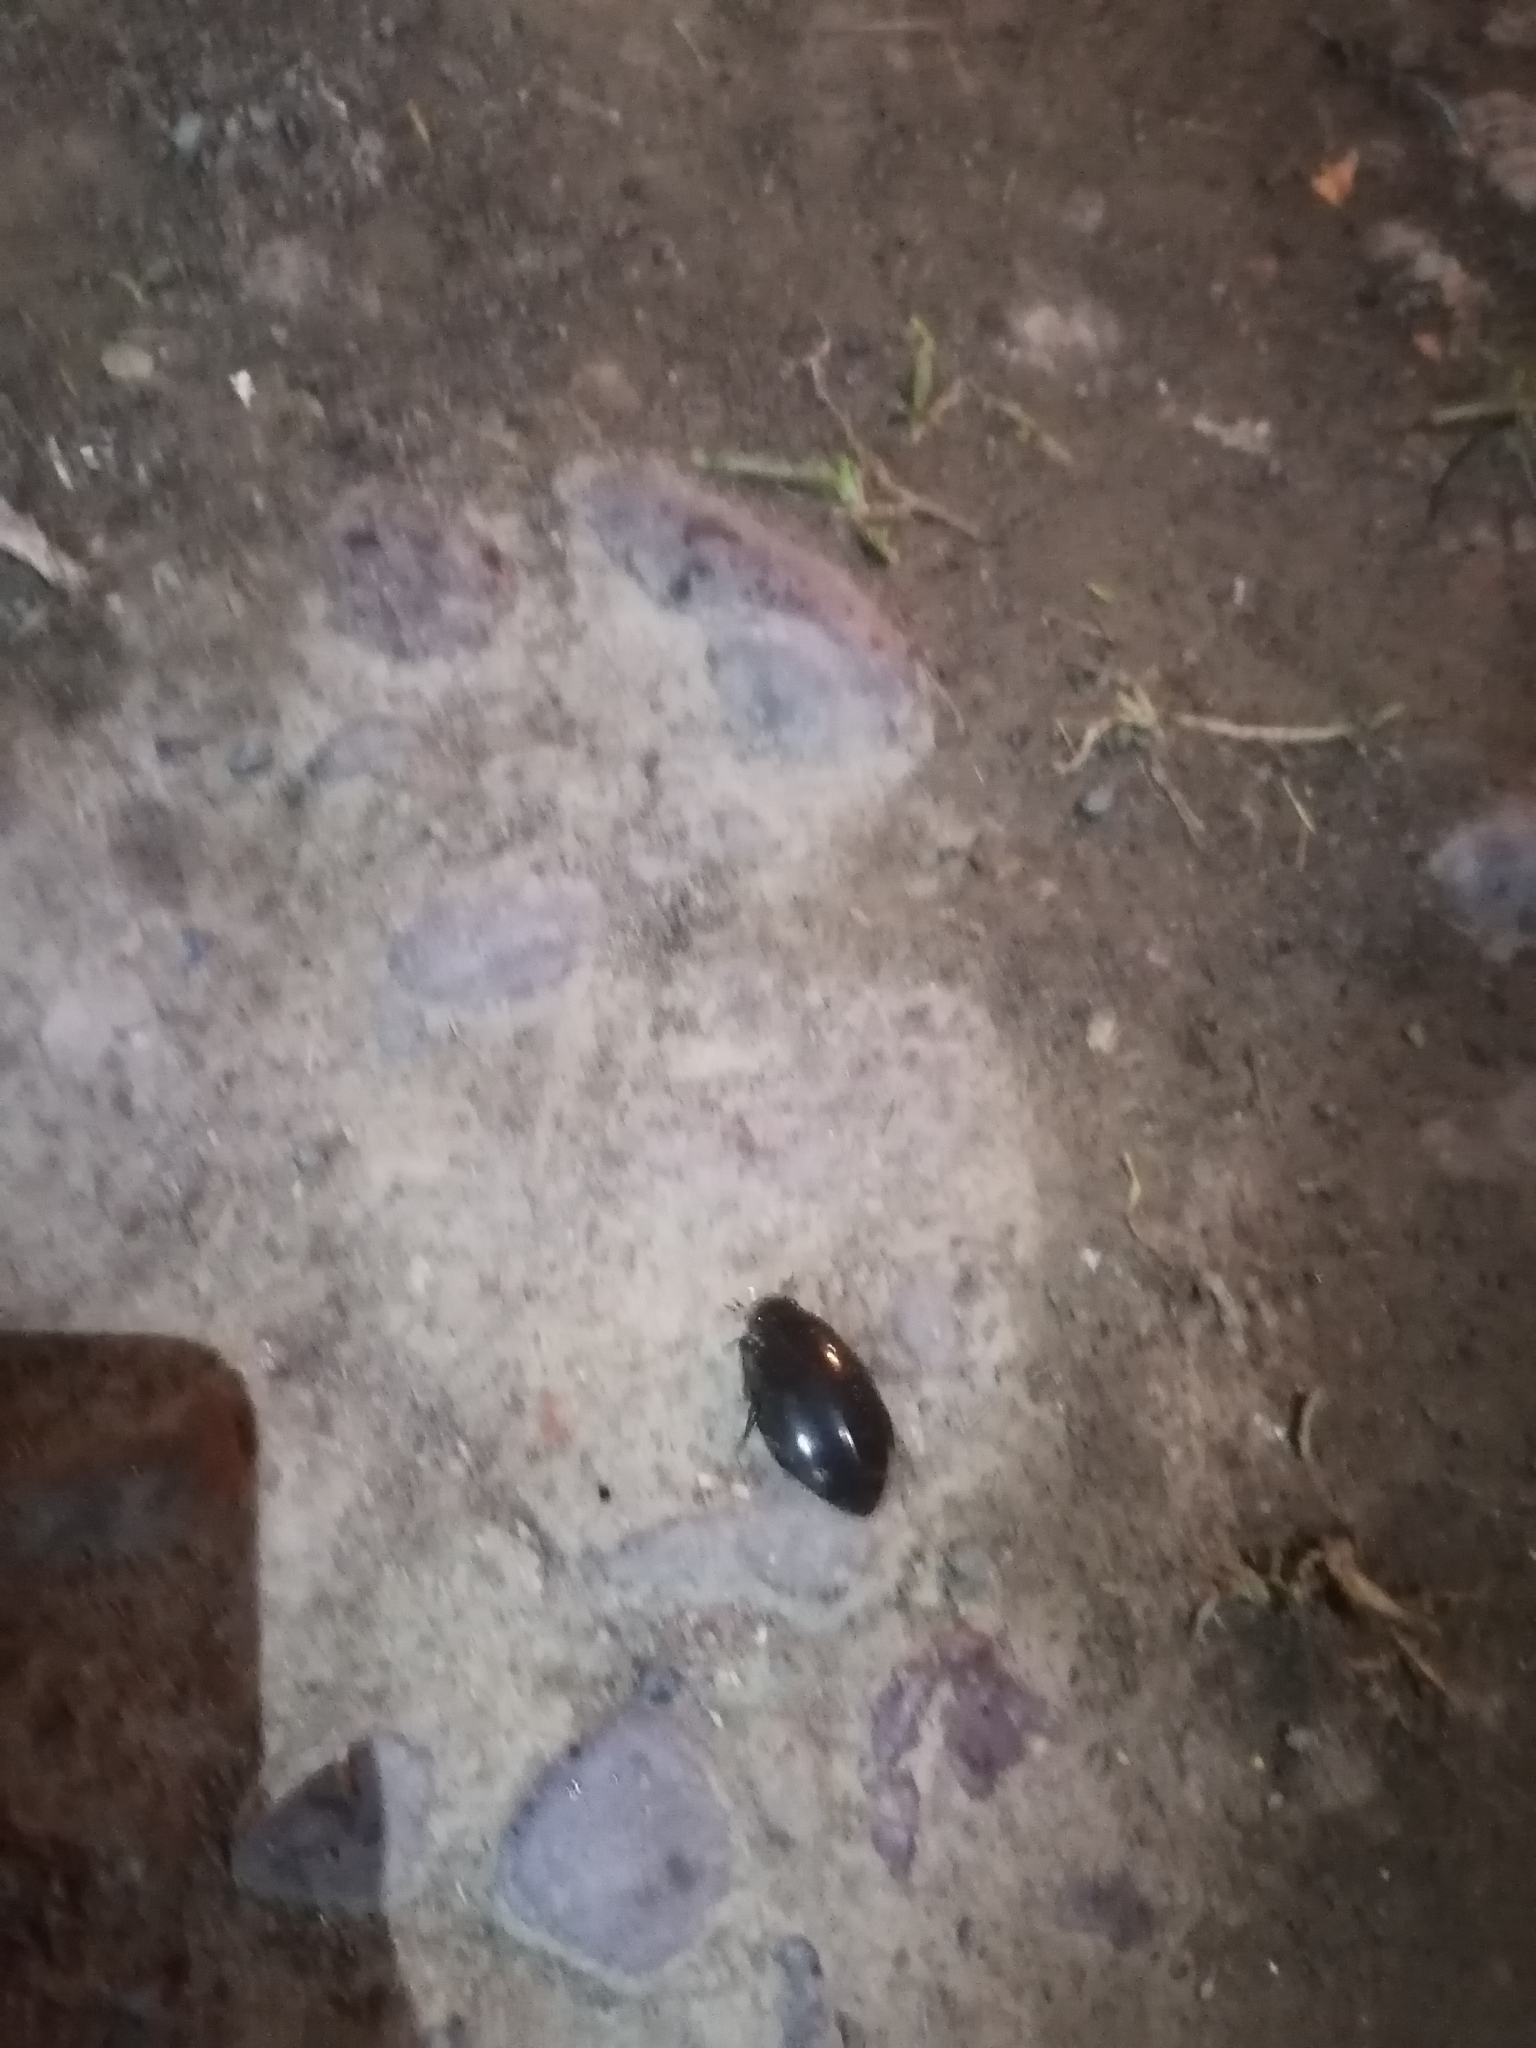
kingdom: Animalia
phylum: Arthropoda
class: Insecta
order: Coleoptera
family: Dytiscidae
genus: Thermonectus
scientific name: Thermonectus
